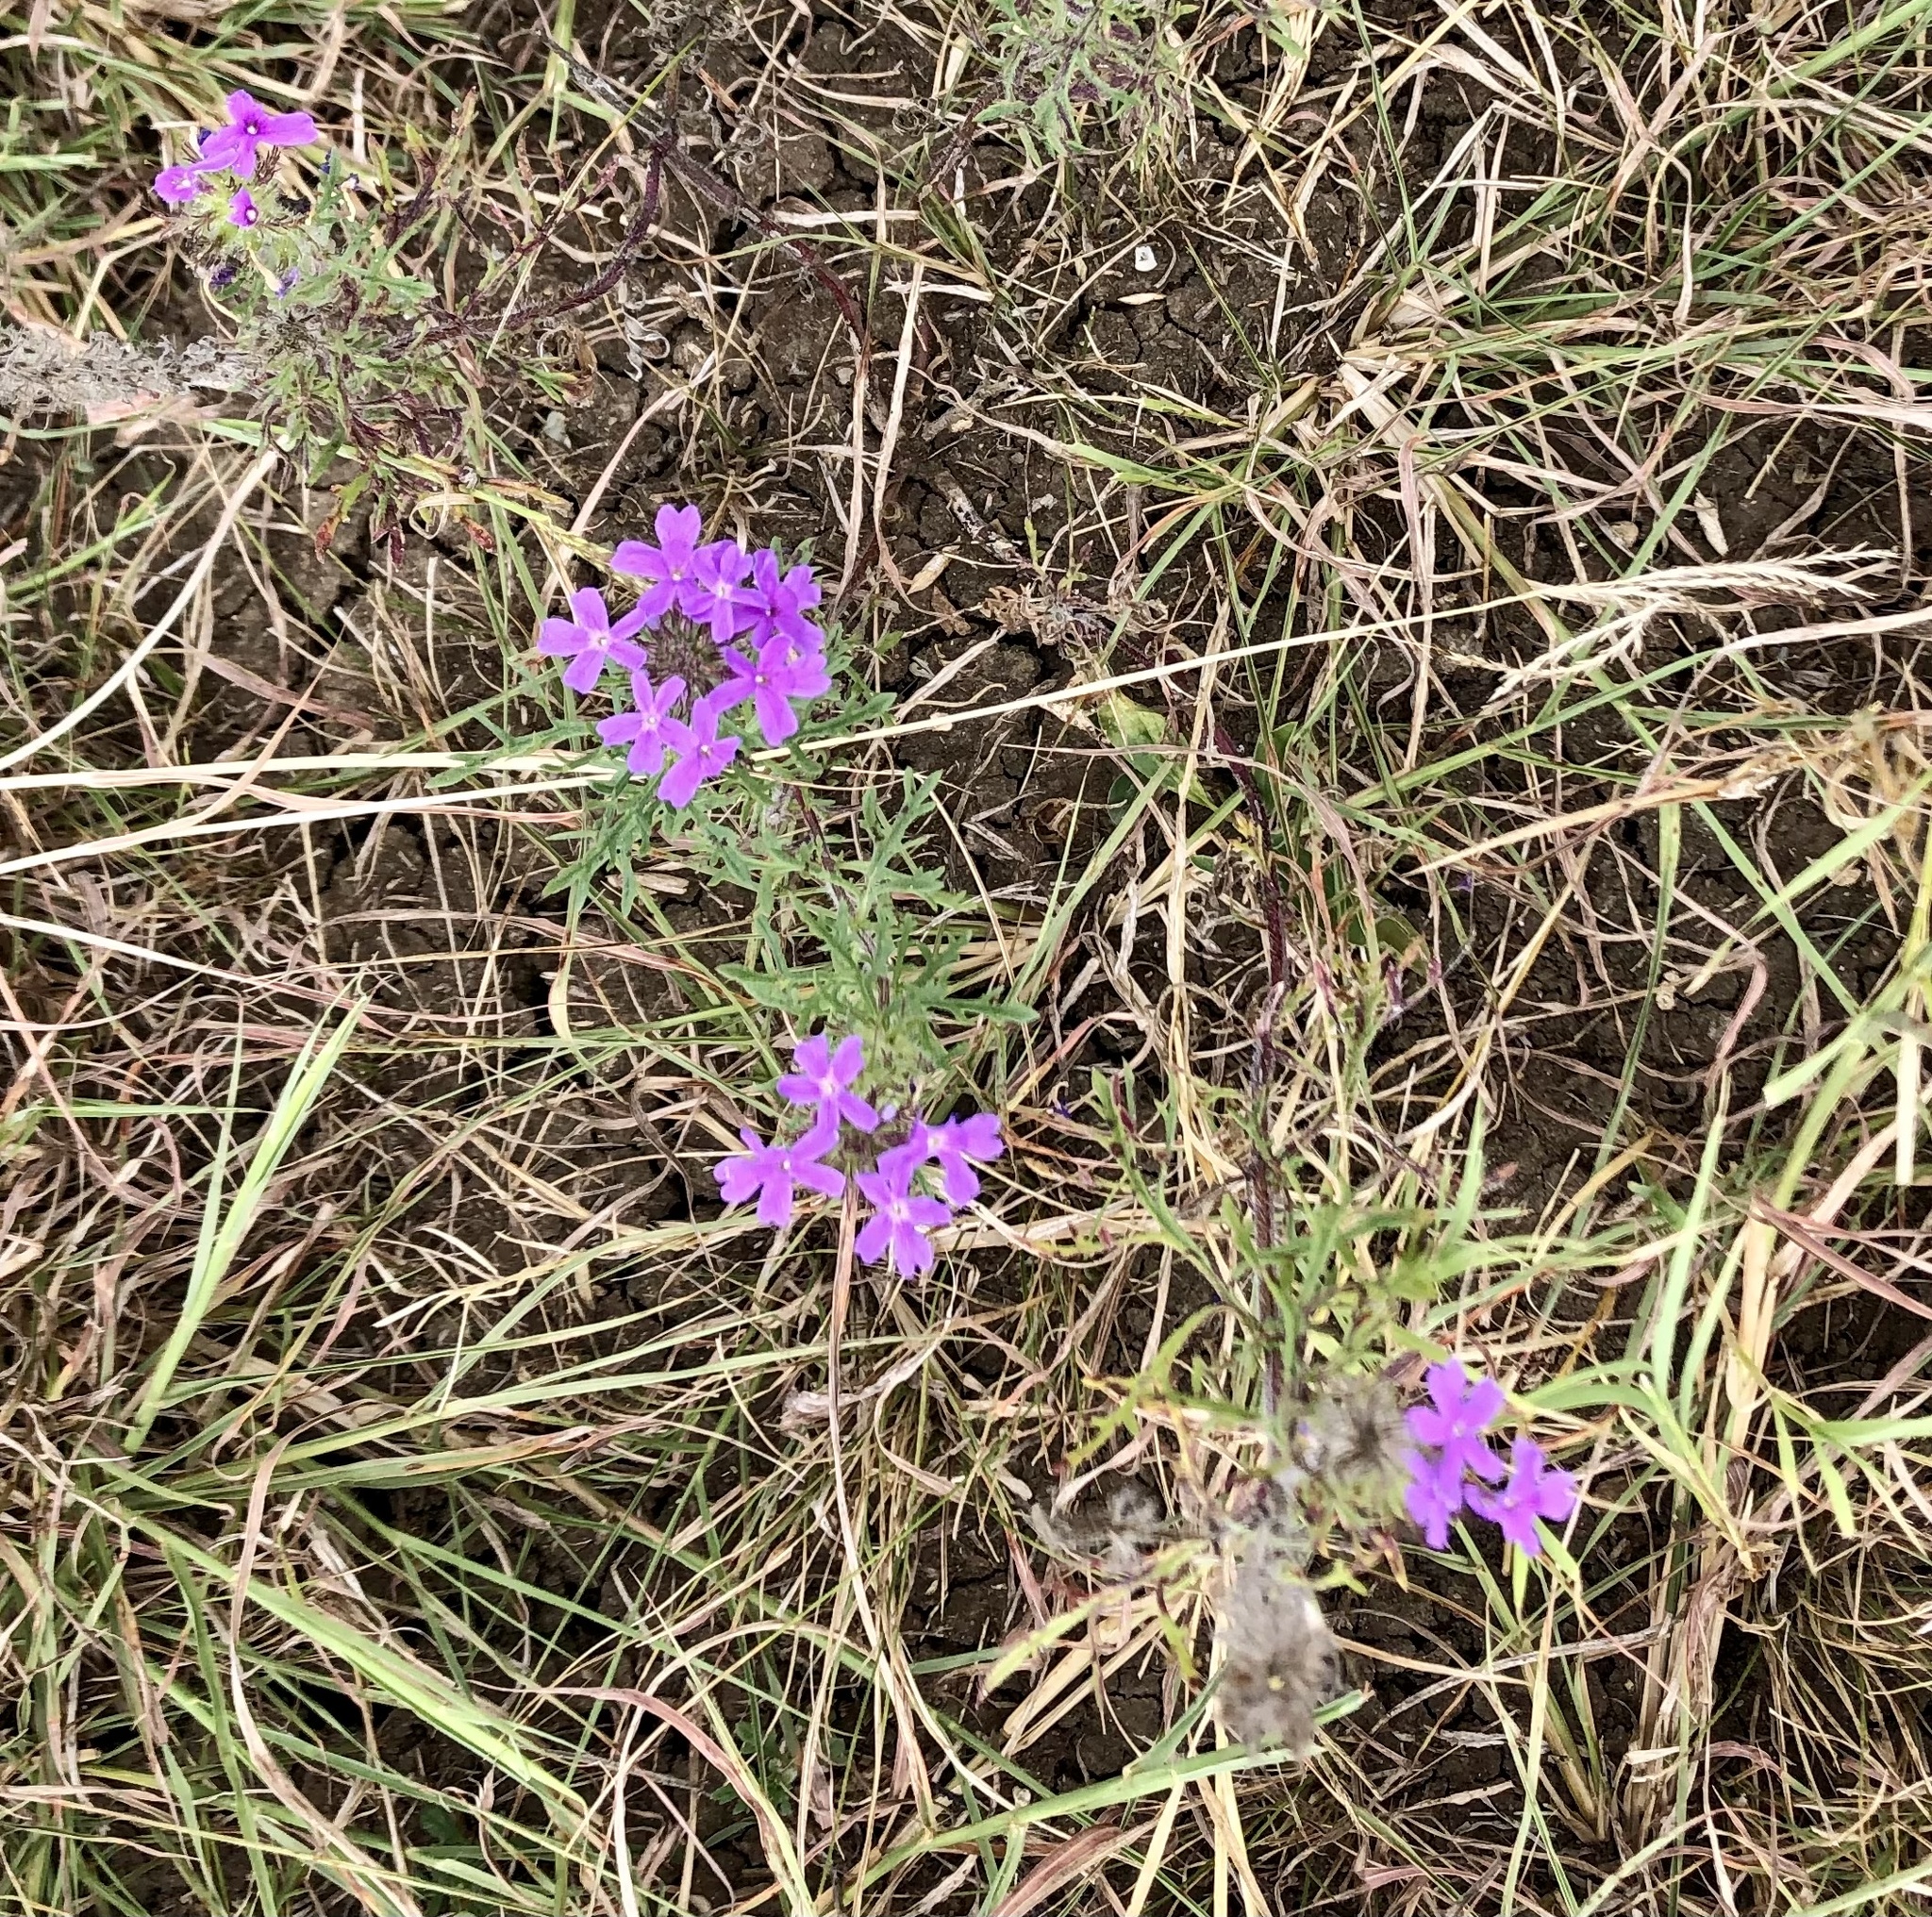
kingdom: Plantae
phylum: Tracheophyta
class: Magnoliopsida
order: Lamiales
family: Verbenaceae
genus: Verbena
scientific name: Verbena bipinnatifida
